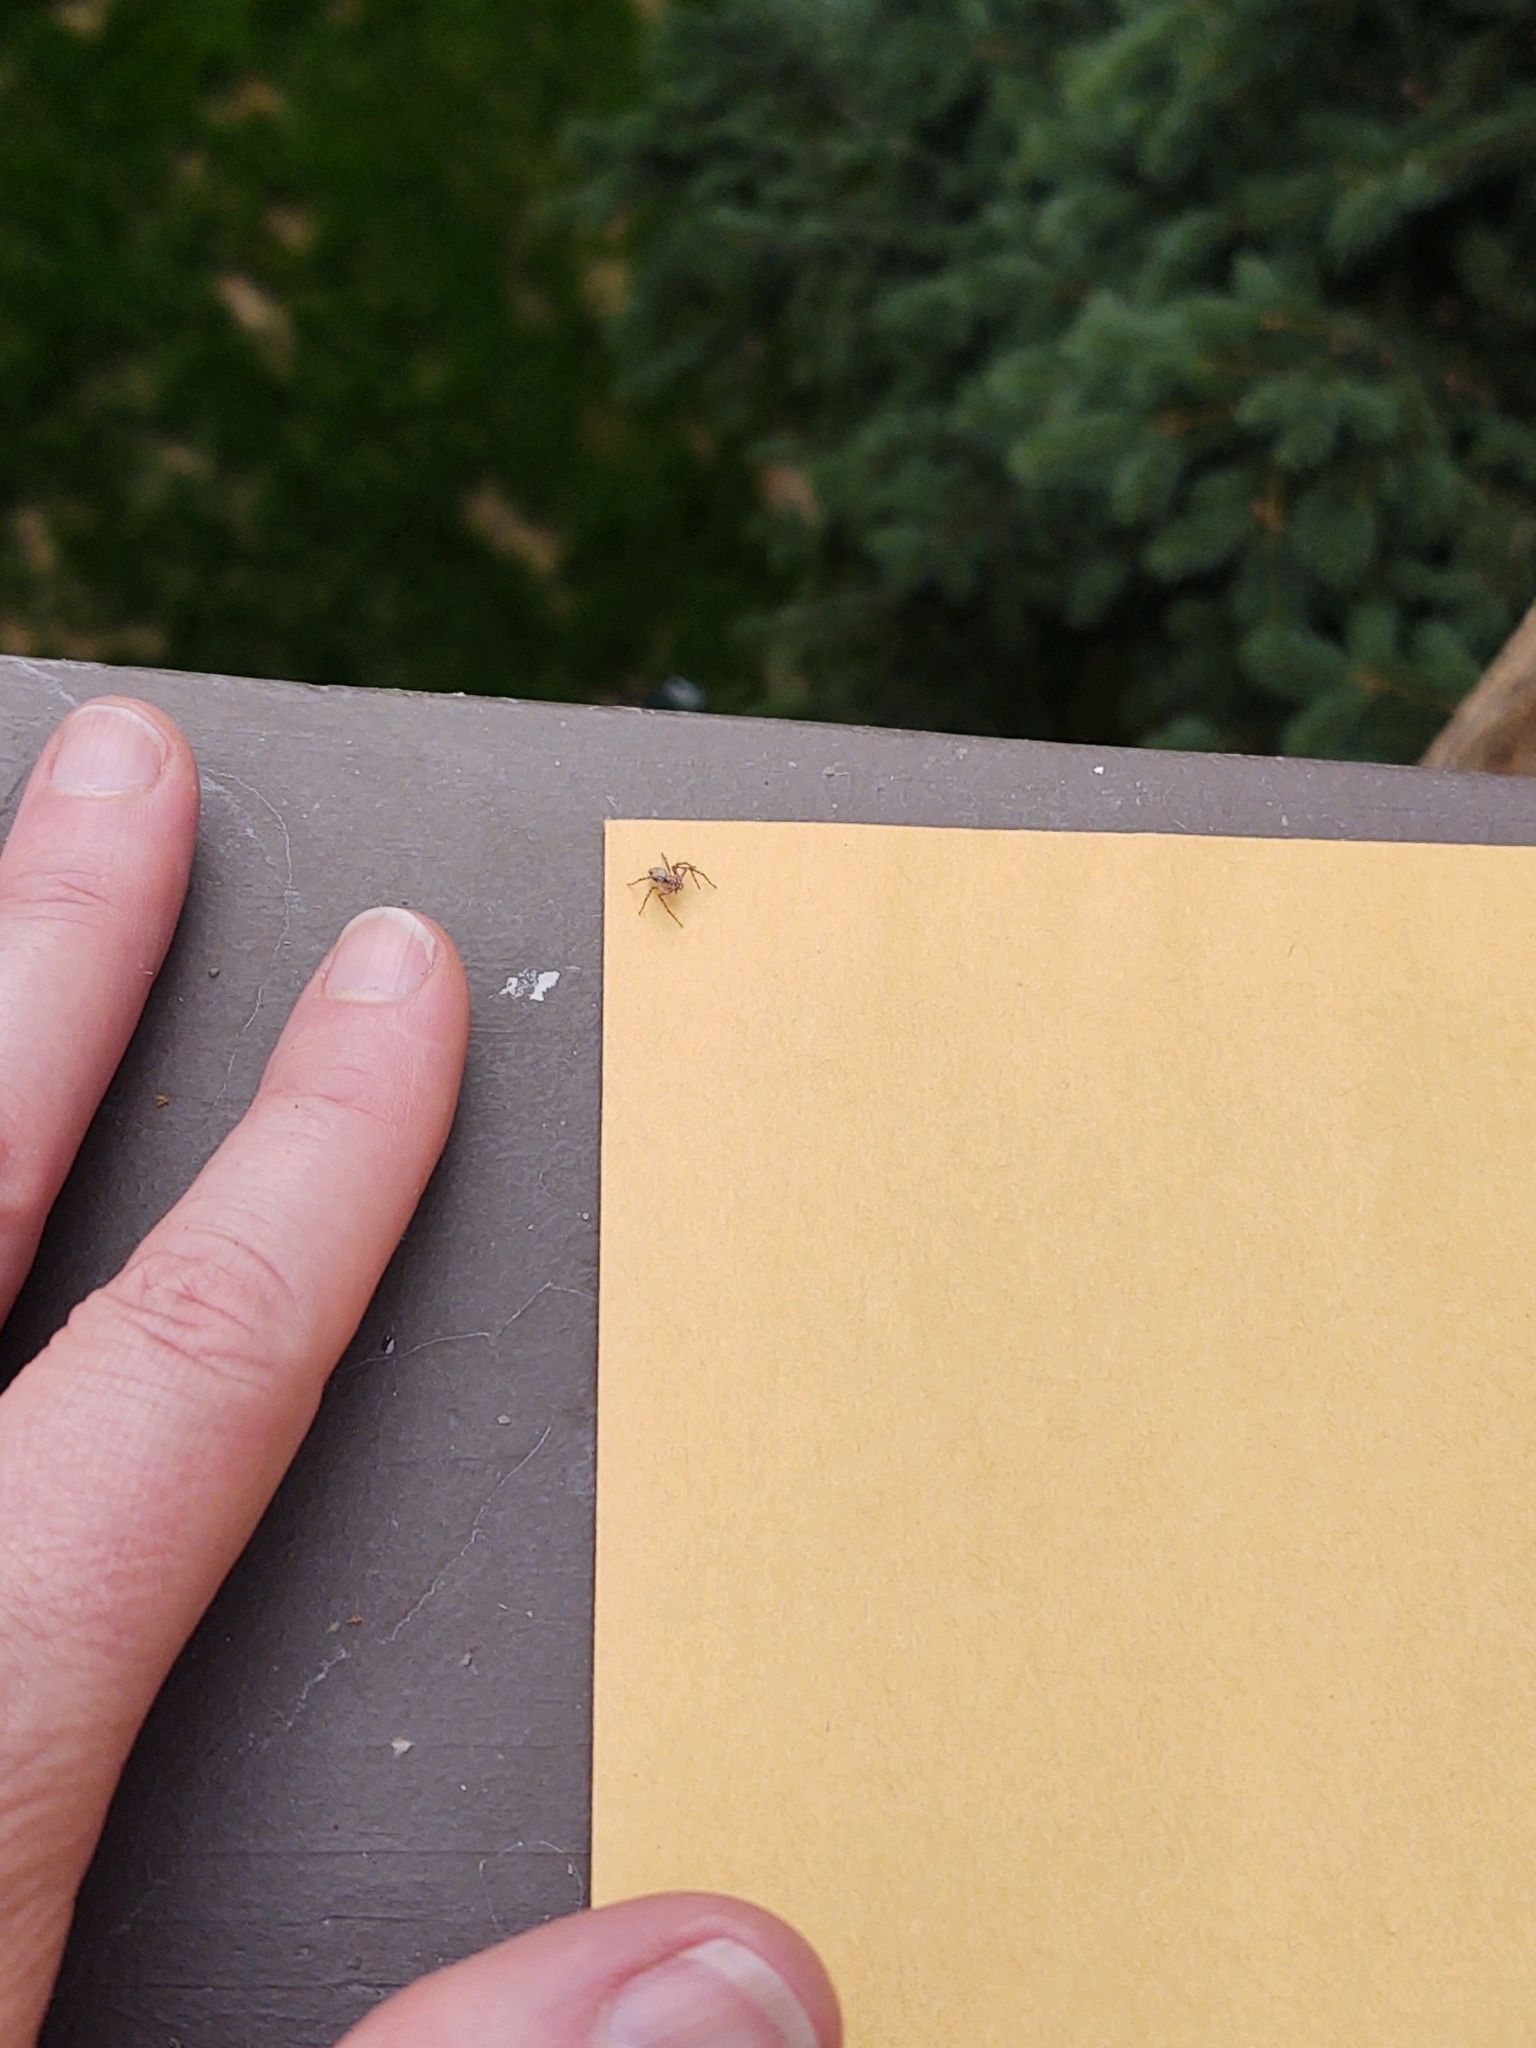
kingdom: Animalia
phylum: Arthropoda
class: Arachnida
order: Araneae
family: Oxyopidae
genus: Oxyopes
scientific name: Oxyopes scalaris
